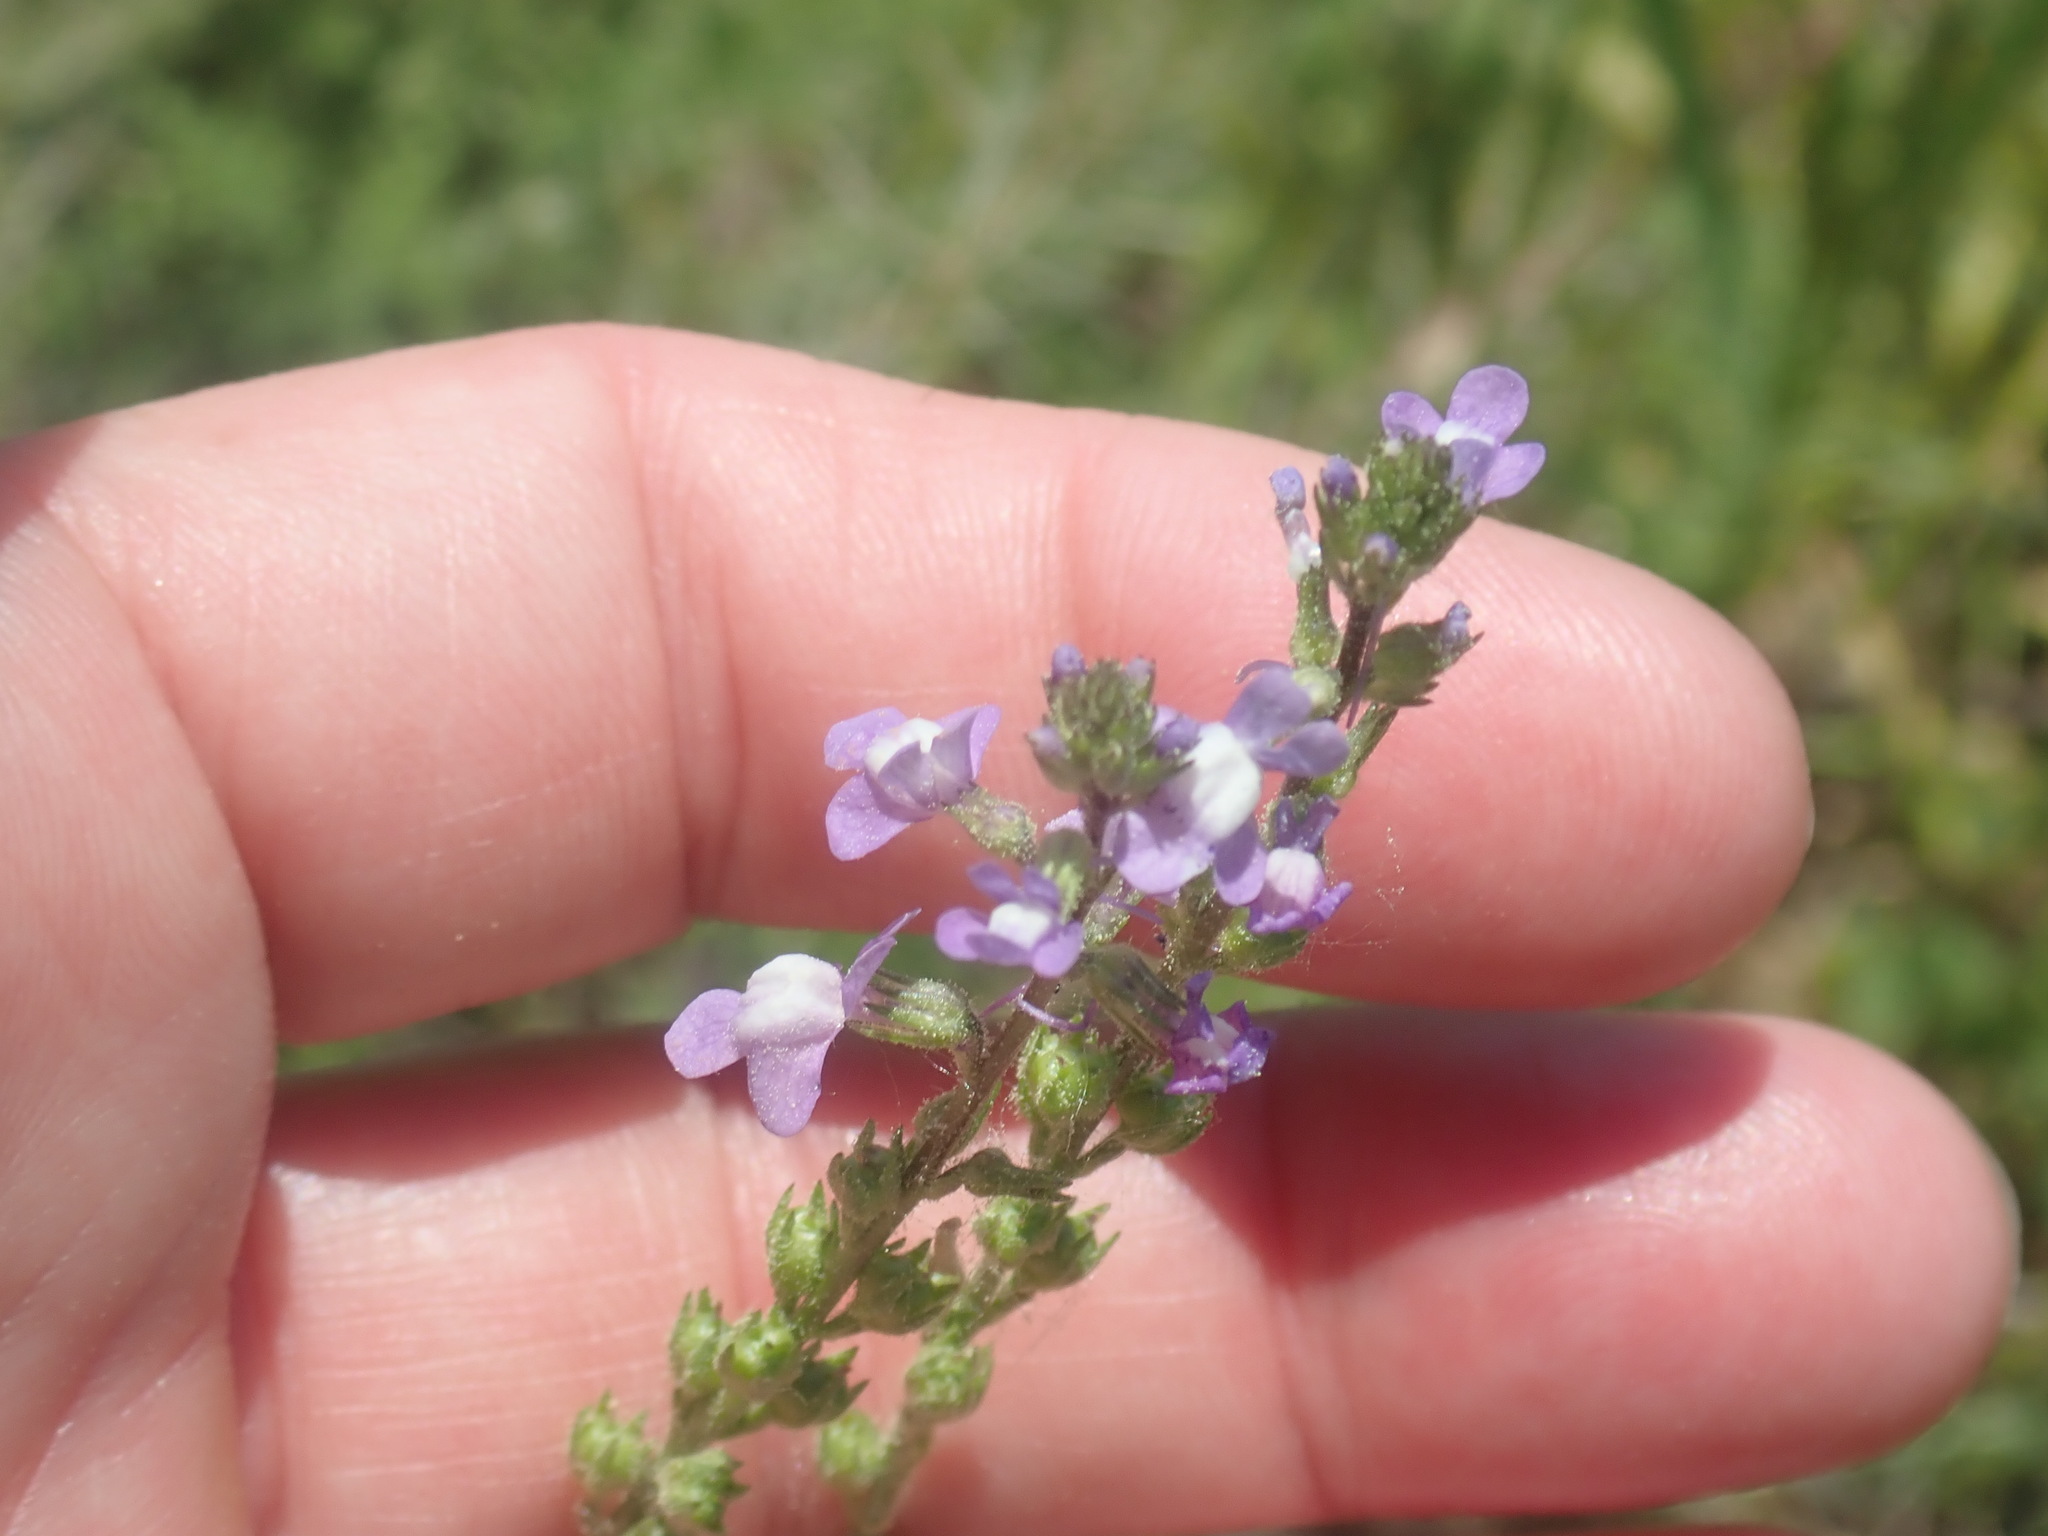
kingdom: Plantae
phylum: Tracheophyta
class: Magnoliopsida
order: Lamiales
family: Plantaginaceae
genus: Nuttallanthus
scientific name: Nuttallanthus canadensis
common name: Blue toadflax
